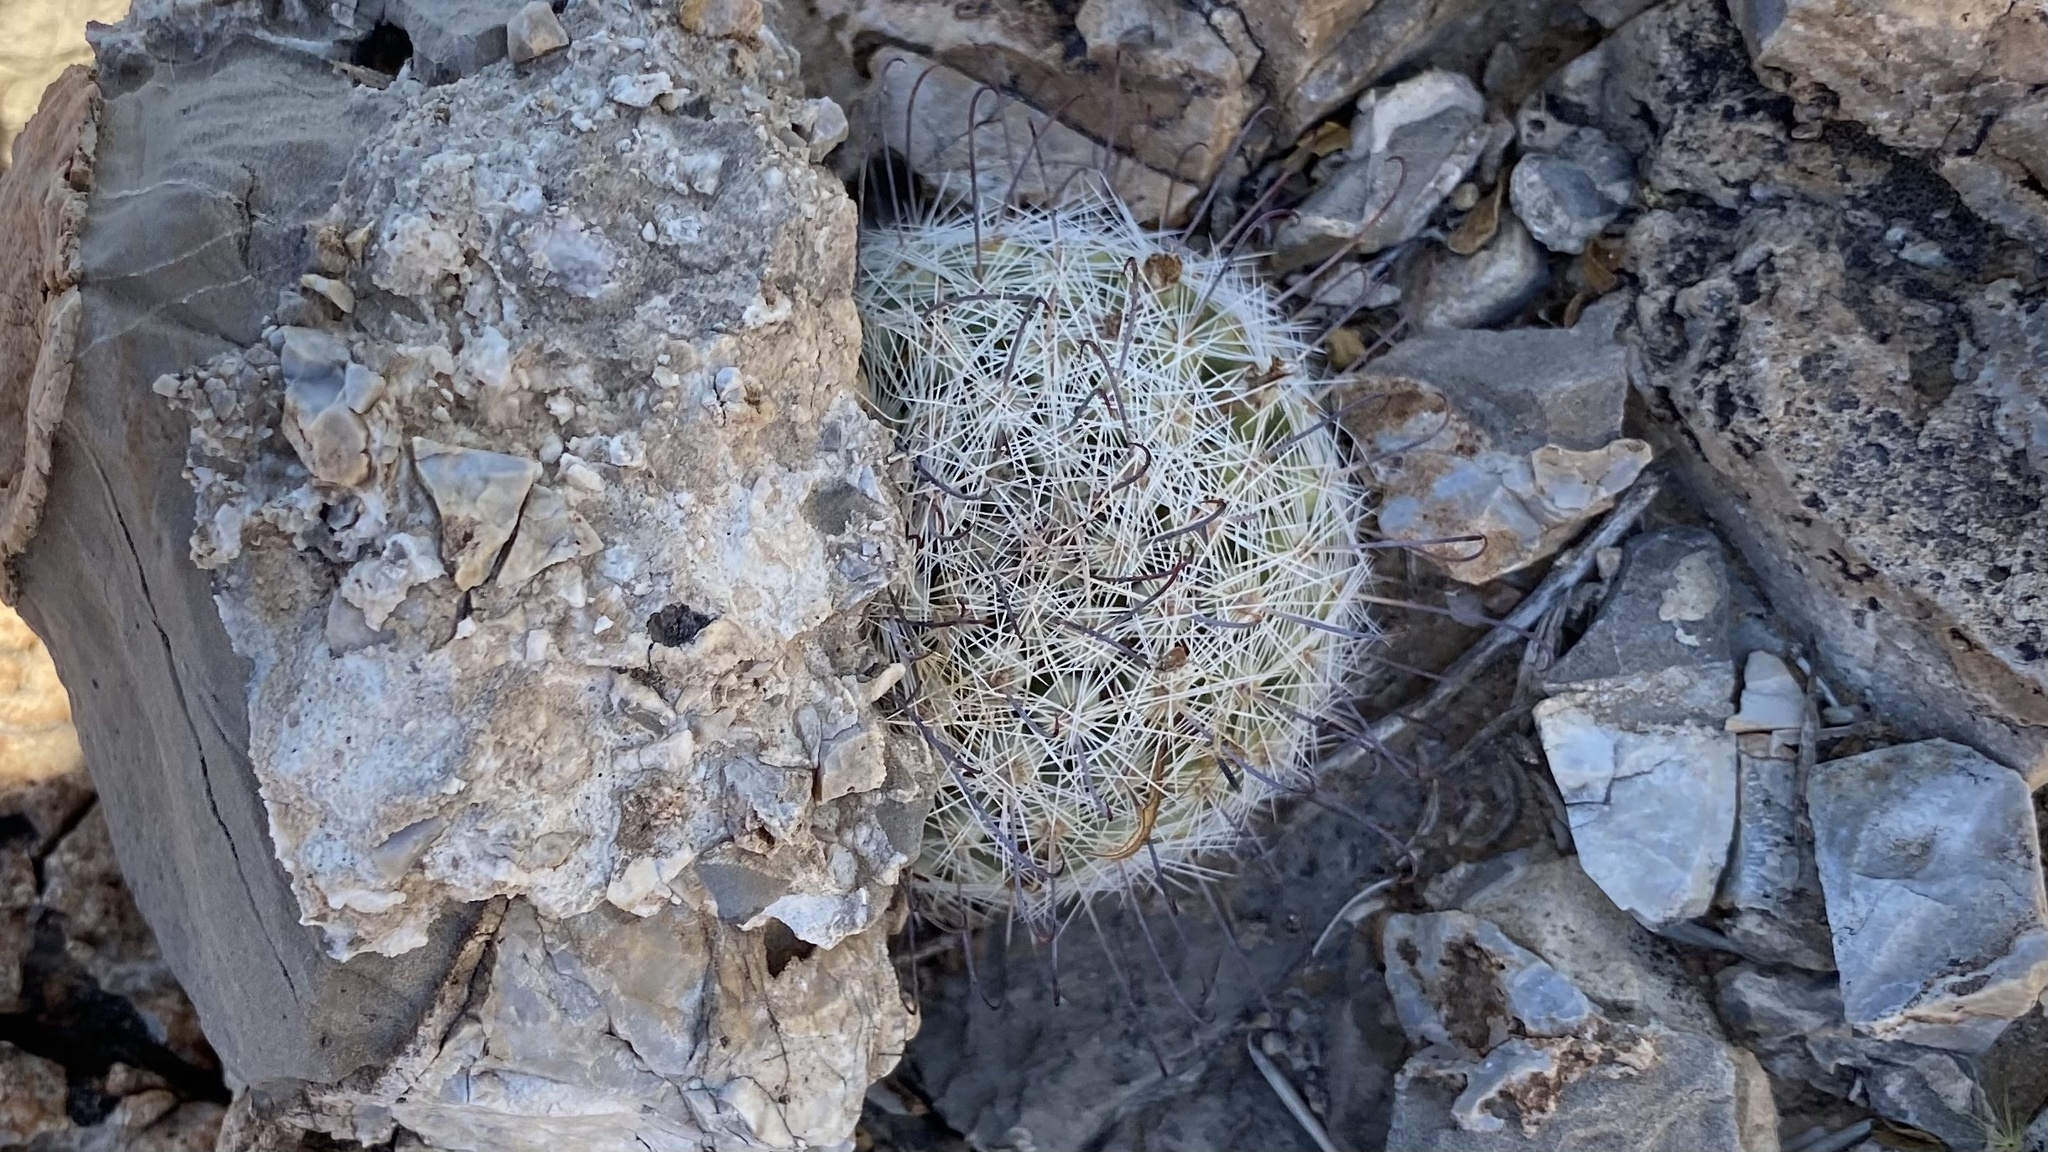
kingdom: Plantae
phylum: Tracheophyta
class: Magnoliopsida
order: Caryophyllales
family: Cactaceae
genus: Cochemiea
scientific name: Cochemiea grahamii
